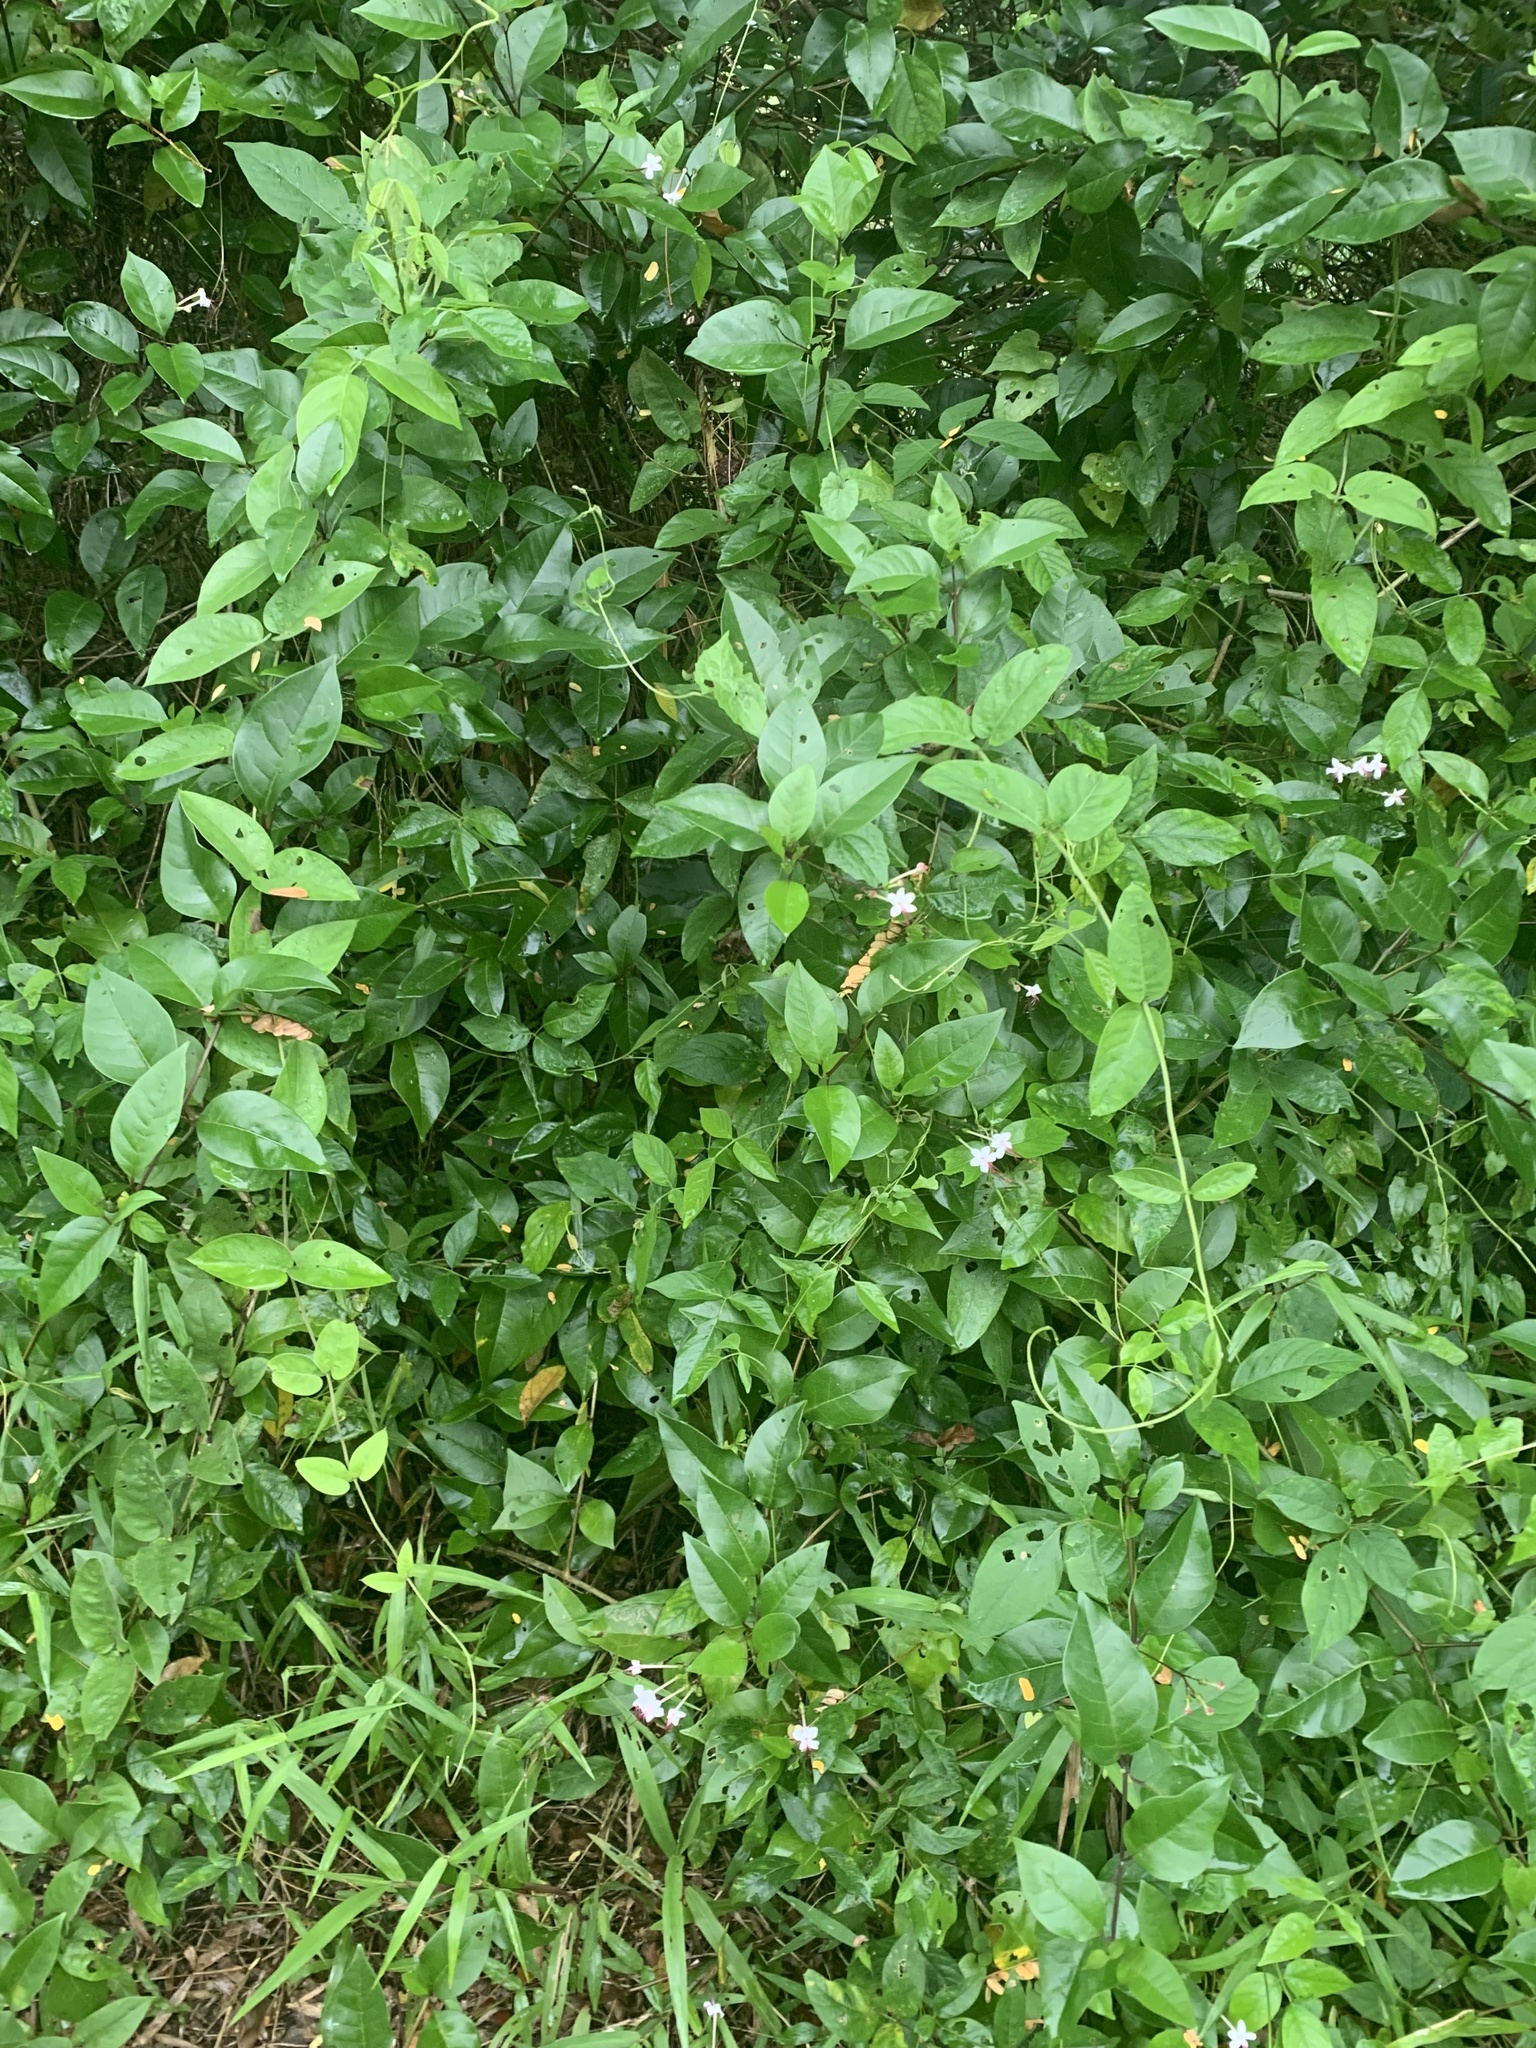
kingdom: Plantae
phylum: Tracheophyta
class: Magnoliopsida
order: Lamiales
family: Lamiaceae
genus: Volkameria
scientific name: Volkameria inermis
